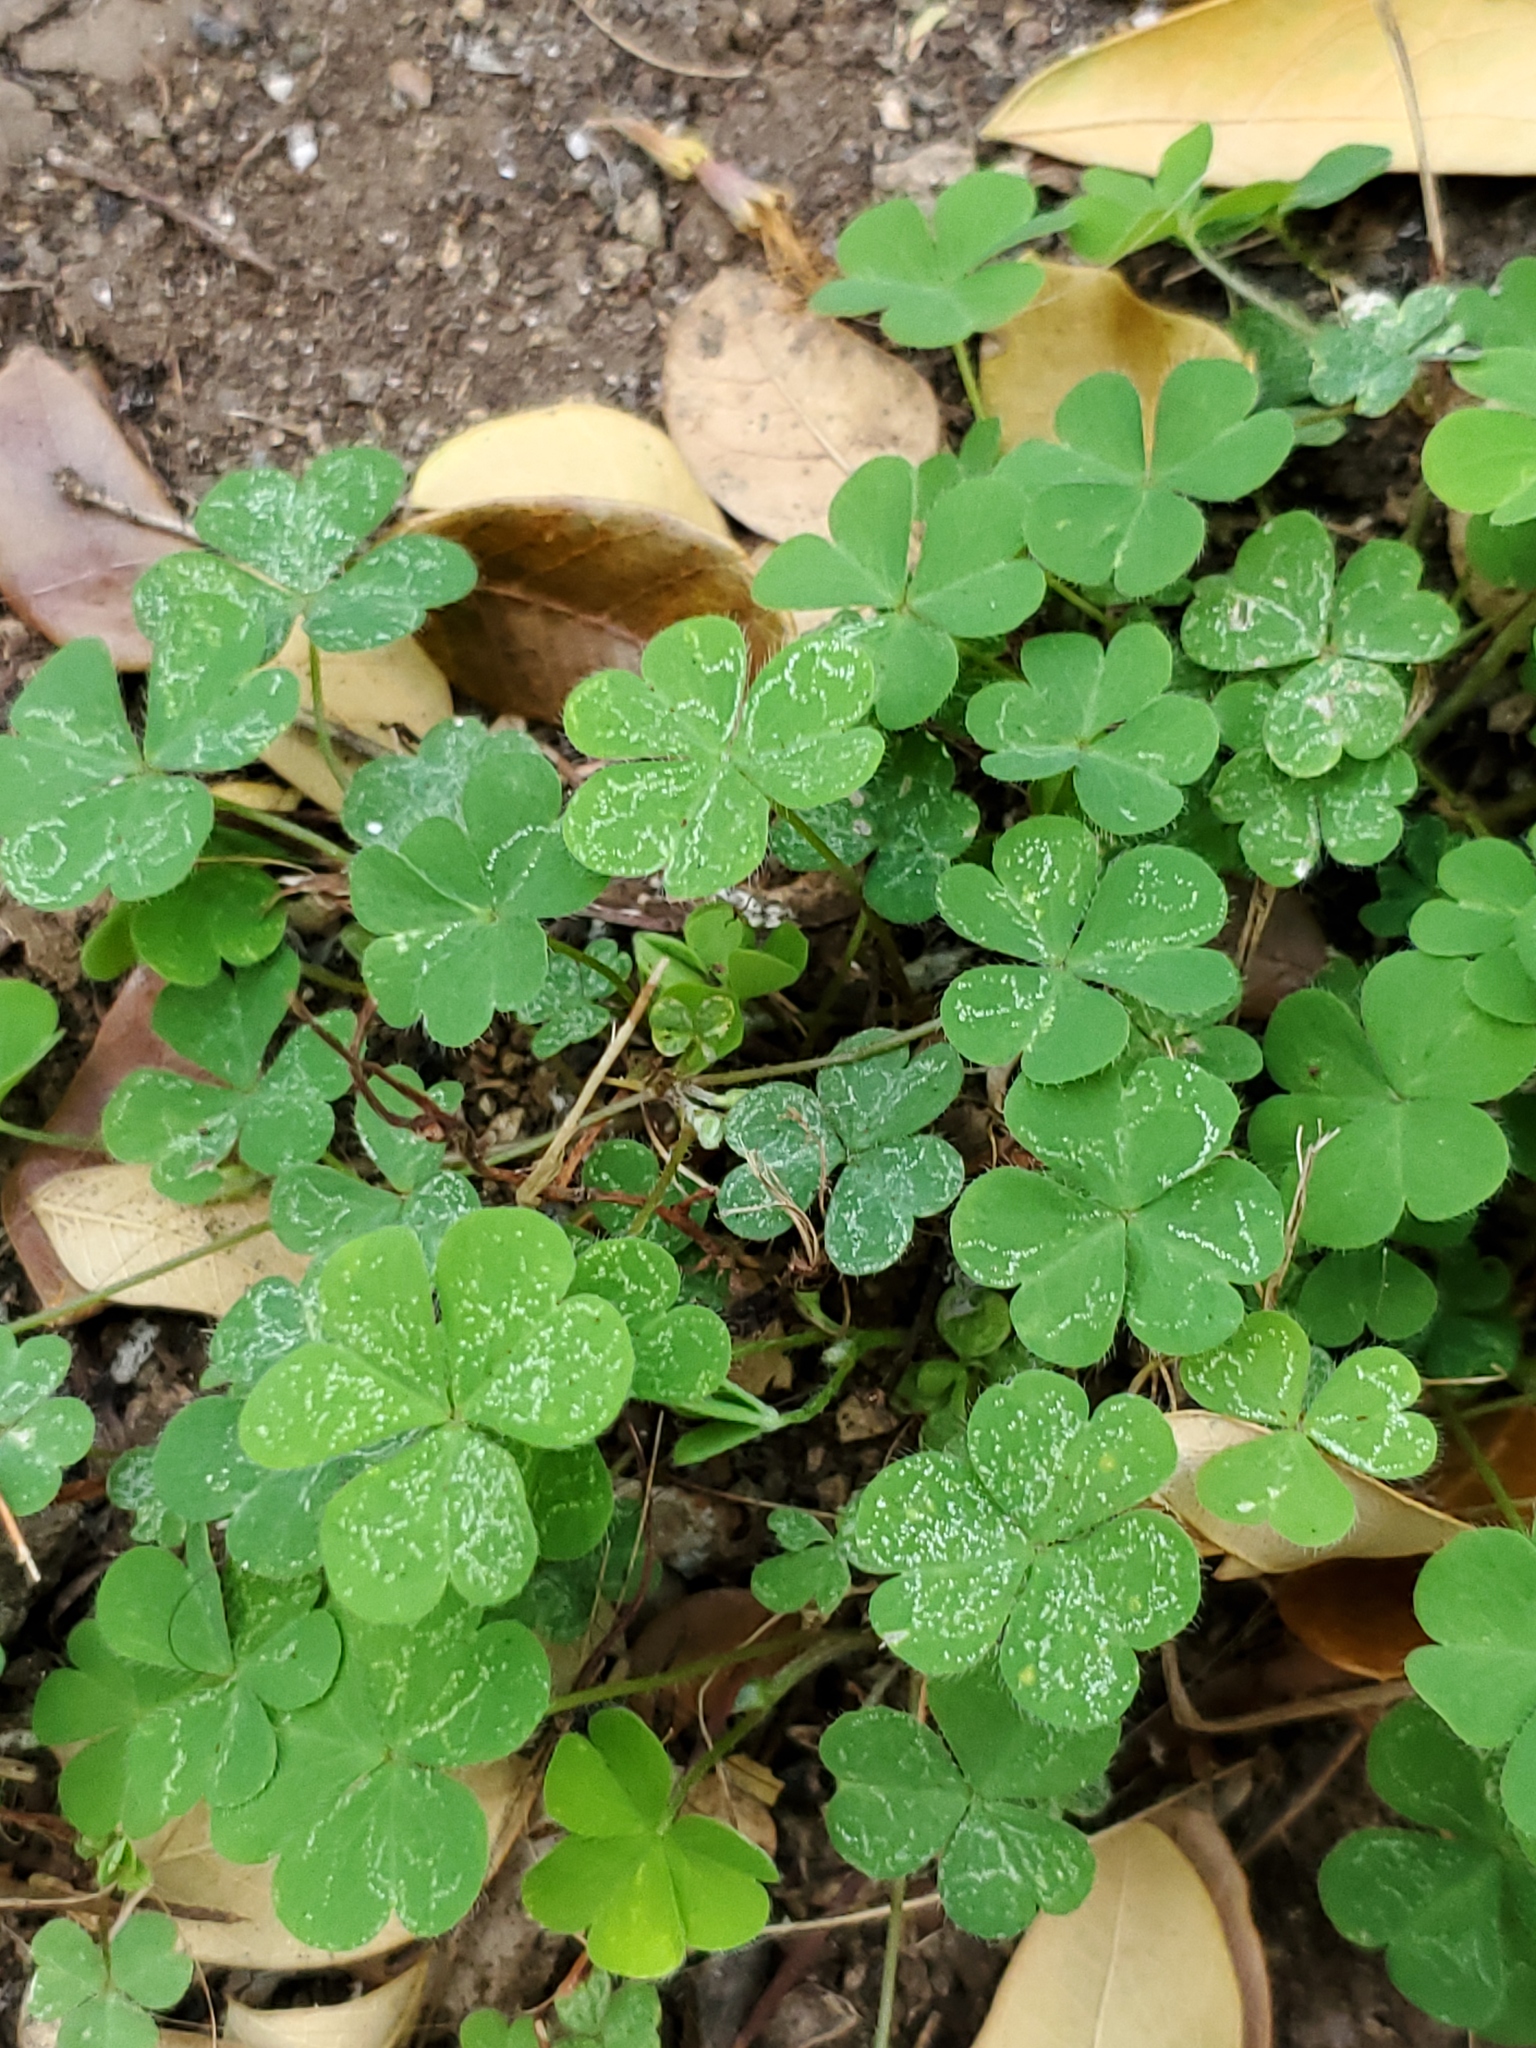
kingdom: Plantae
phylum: Tracheophyta
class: Magnoliopsida
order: Oxalidales
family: Oxalidaceae
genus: Oxalis
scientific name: Oxalis corniculata
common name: Procumbent yellow-sorrel
